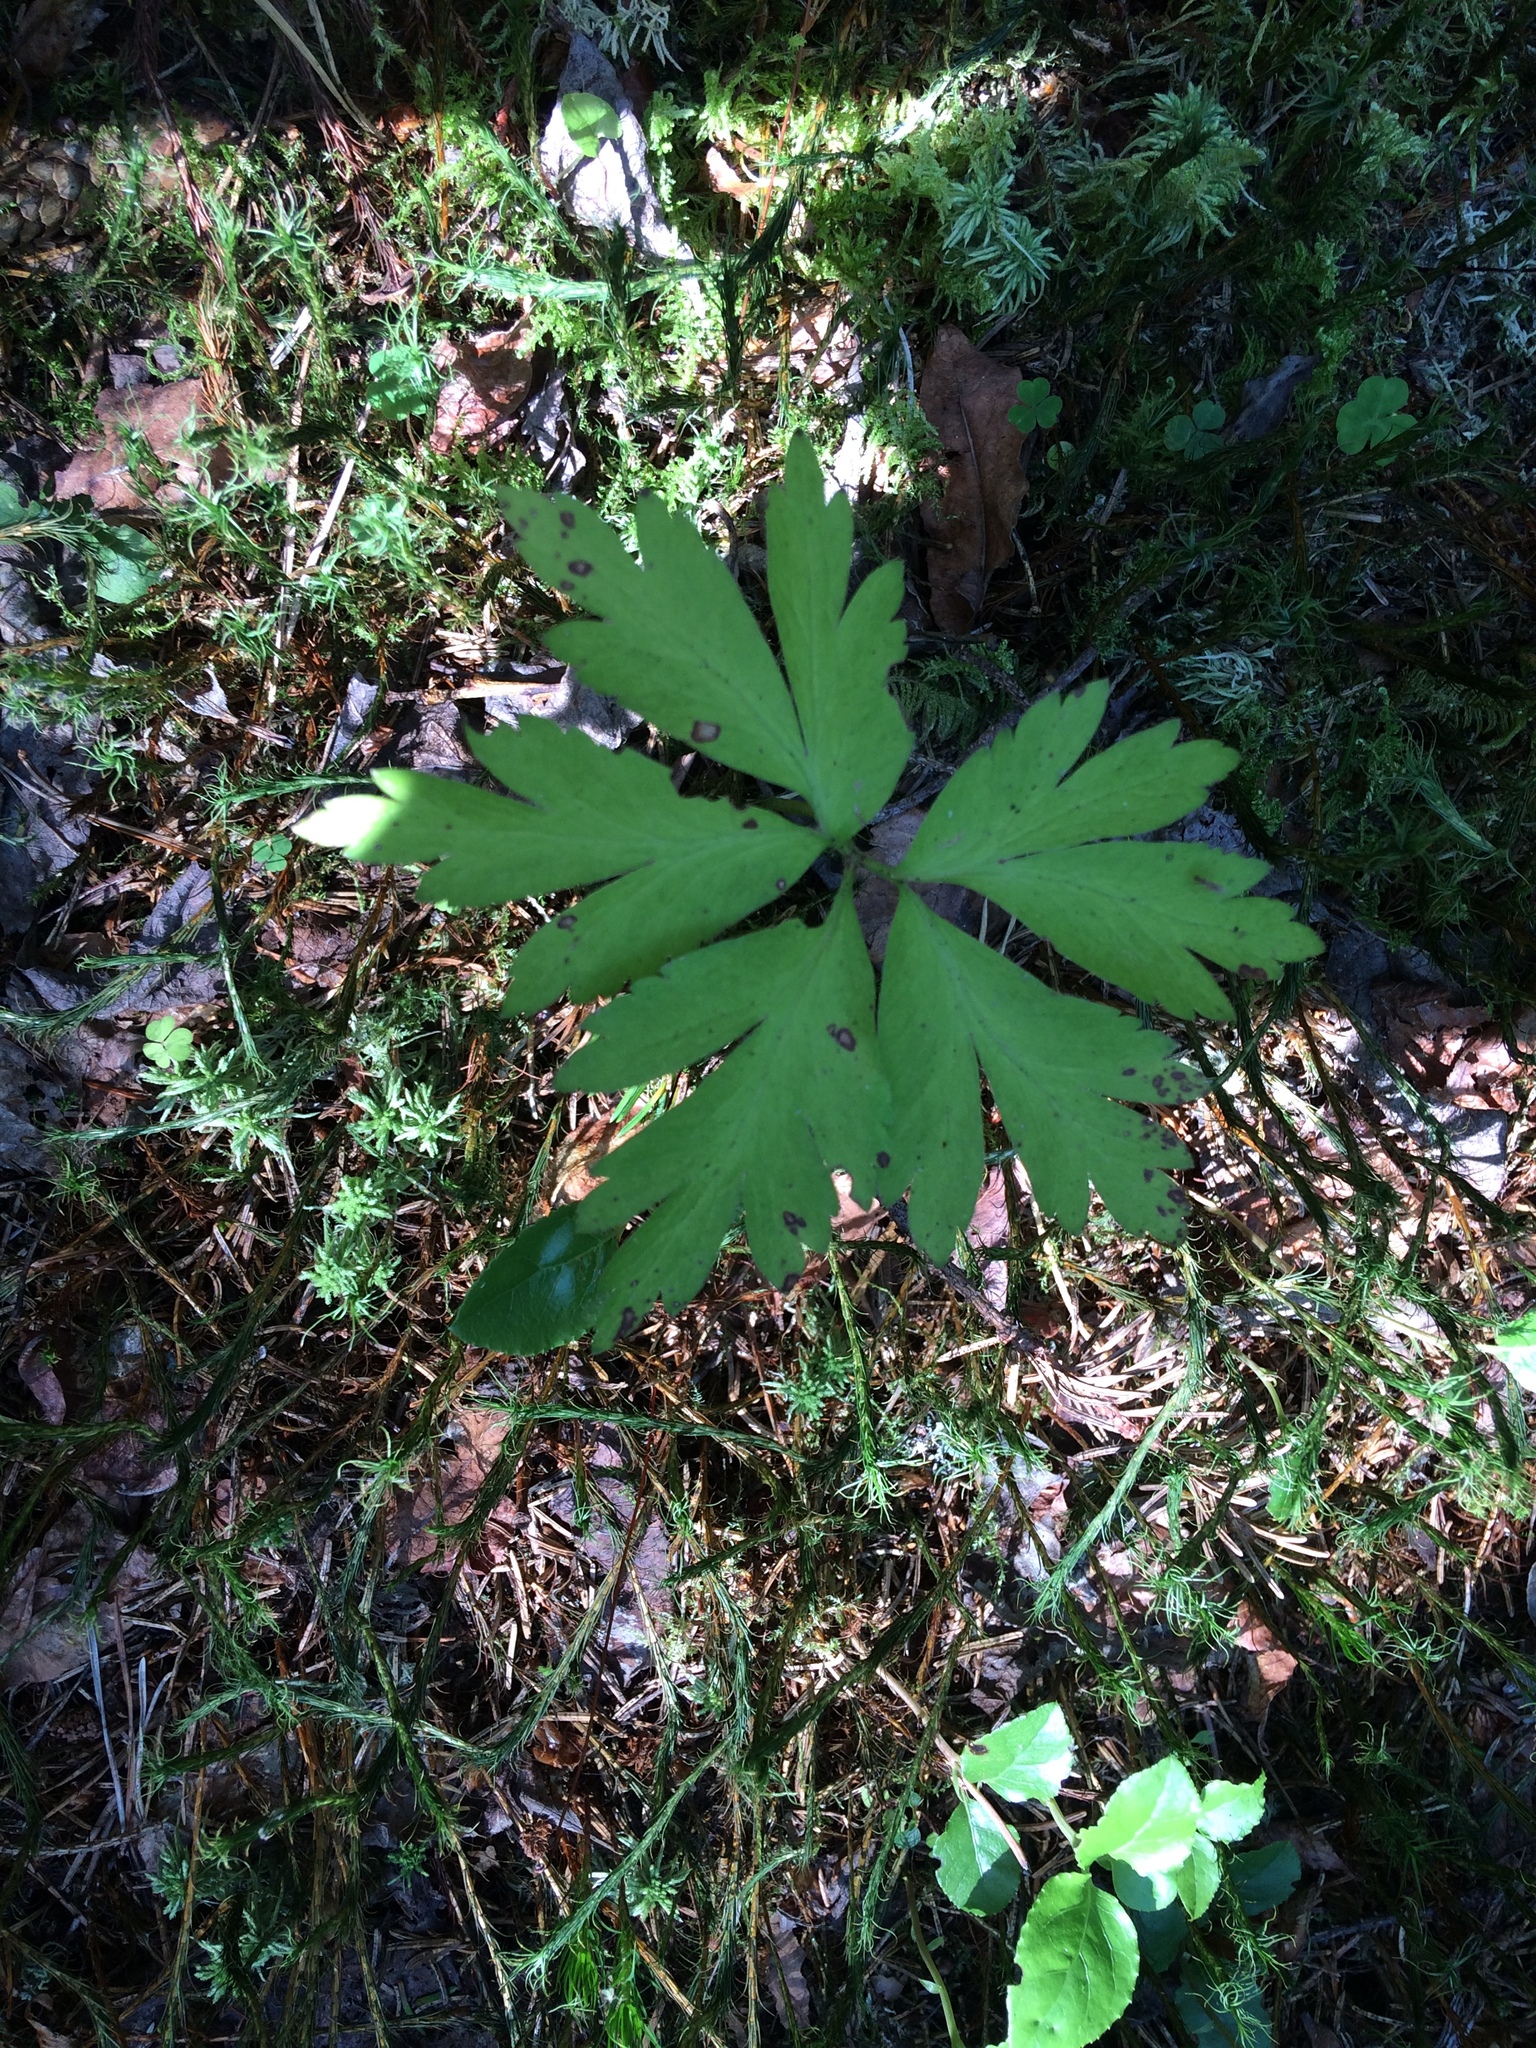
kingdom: Plantae
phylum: Tracheophyta
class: Magnoliopsida
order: Ranunculales
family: Ranunculaceae
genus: Anemone
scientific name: Anemone nemorosa
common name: Wood anemone
